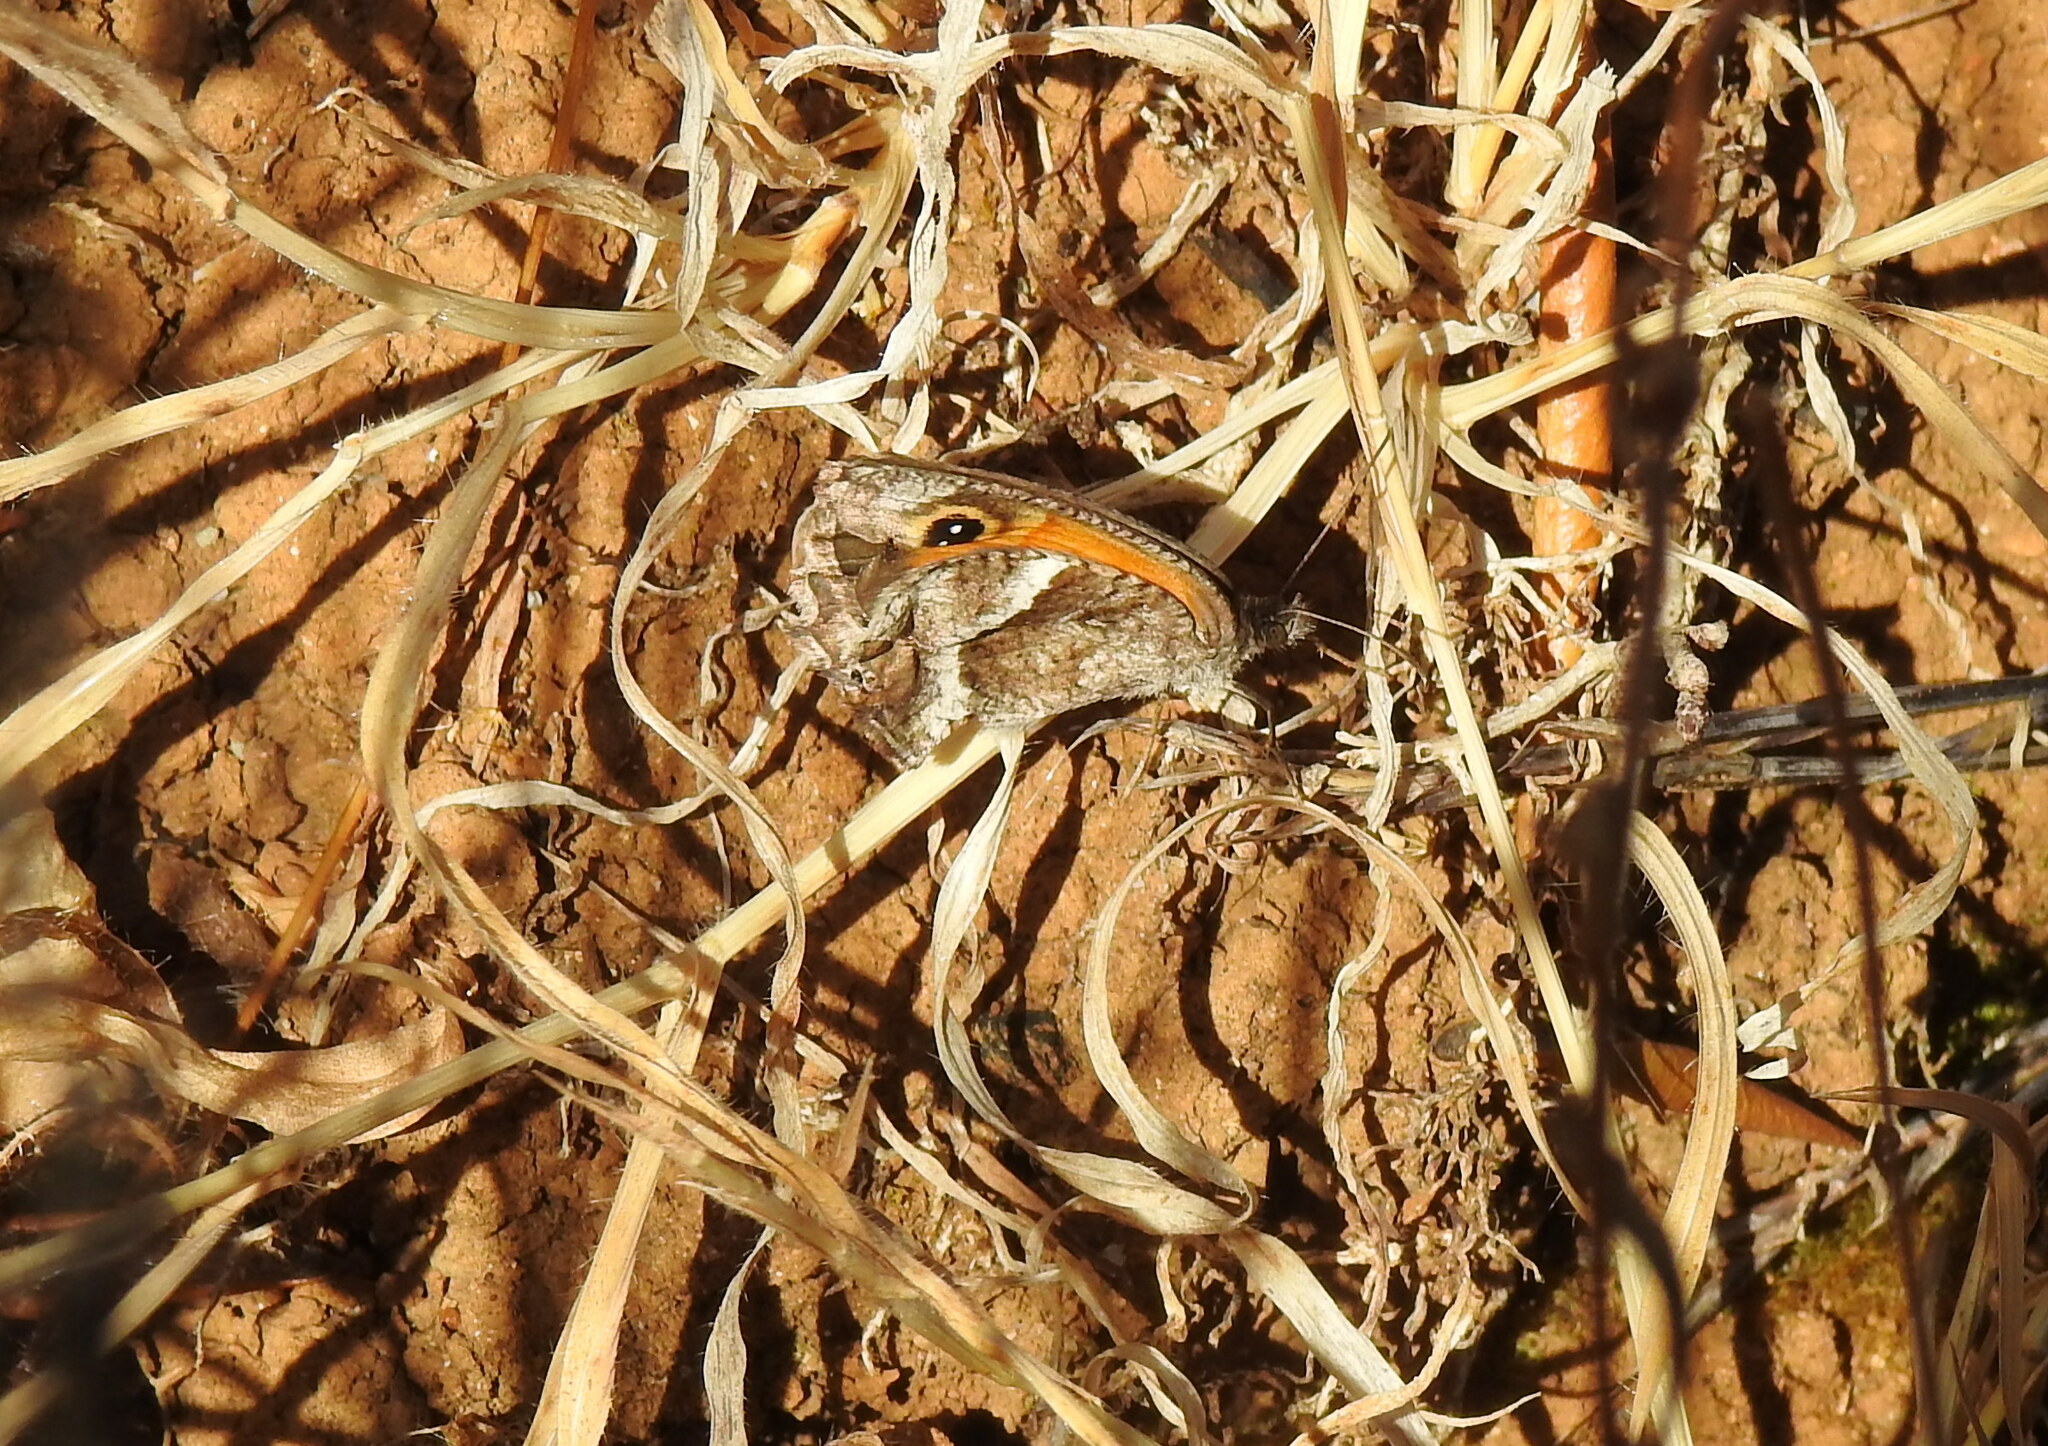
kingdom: Animalia
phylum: Arthropoda
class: Insecta
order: Lepidoptera
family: Nymphalidae
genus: Pyronia
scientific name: Pyronia cecilia
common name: Southern gatekeeper
